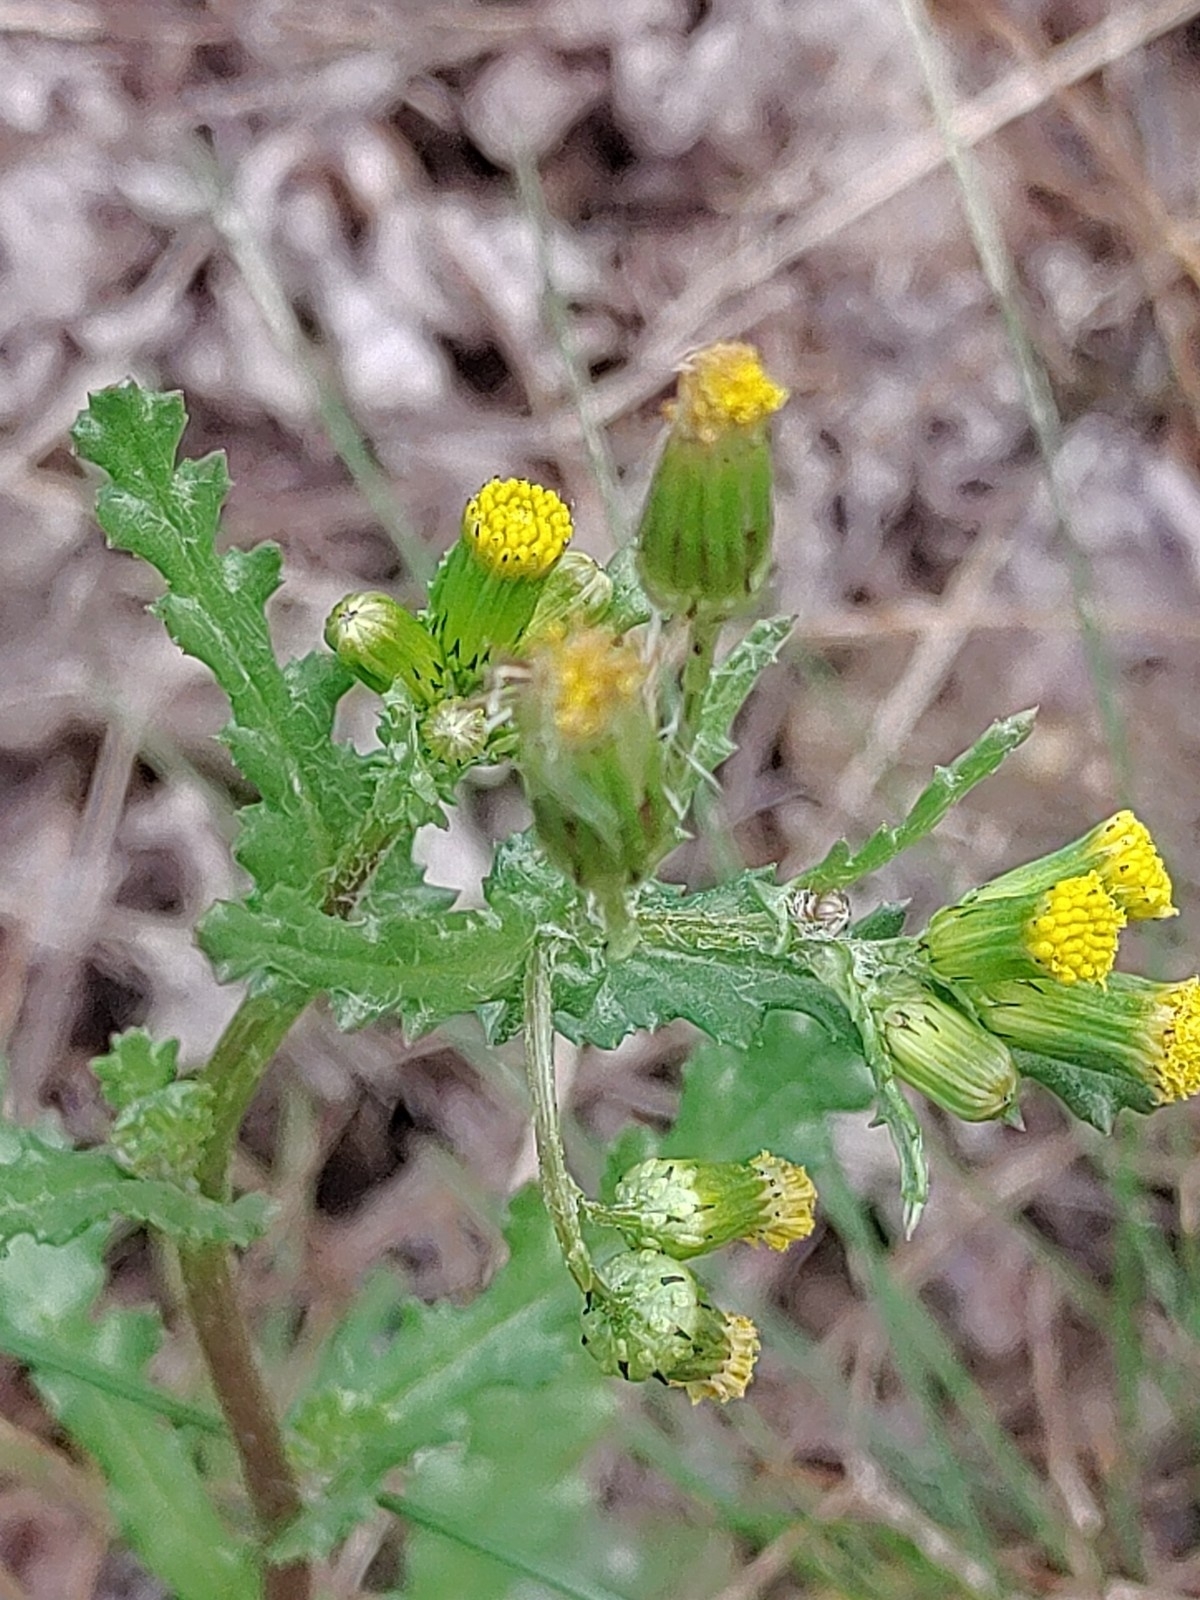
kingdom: Plantae
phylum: Tracheophyta
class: Magnoliopsida
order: Asterales
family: Asteraceae
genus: Senecio
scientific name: Senecio vulgaris
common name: Old-man-in-the-spring
